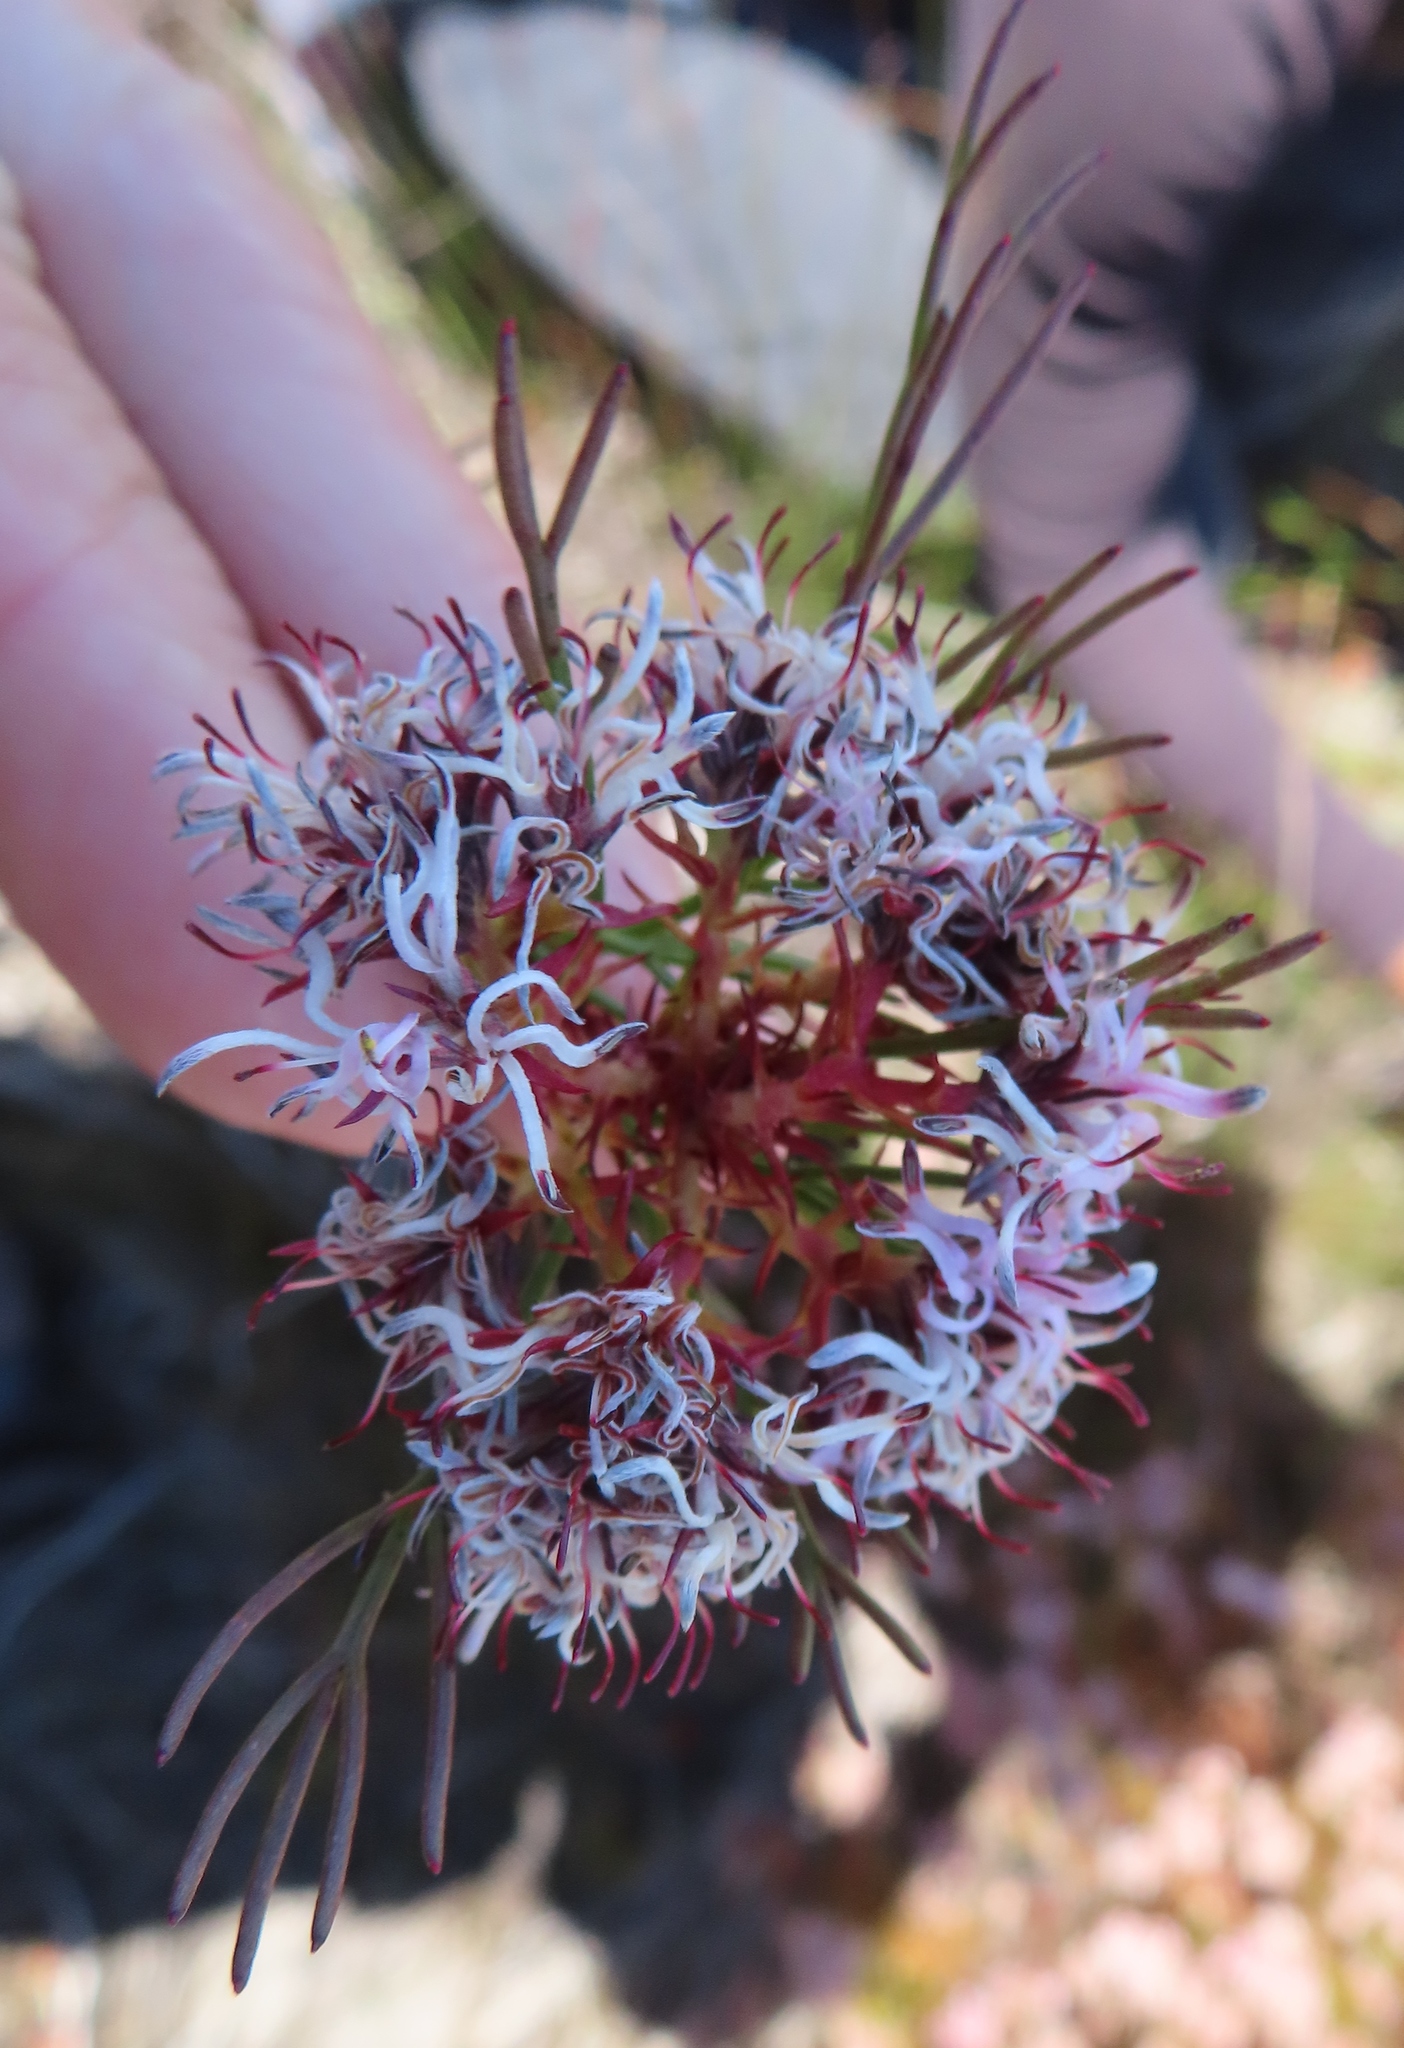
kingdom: Plantae
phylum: Tracheophyta
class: Magnoliopsida
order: Proteales
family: Proteaceae
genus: Serruria
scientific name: Serruria bolusii
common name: Agulhas spiderhead
